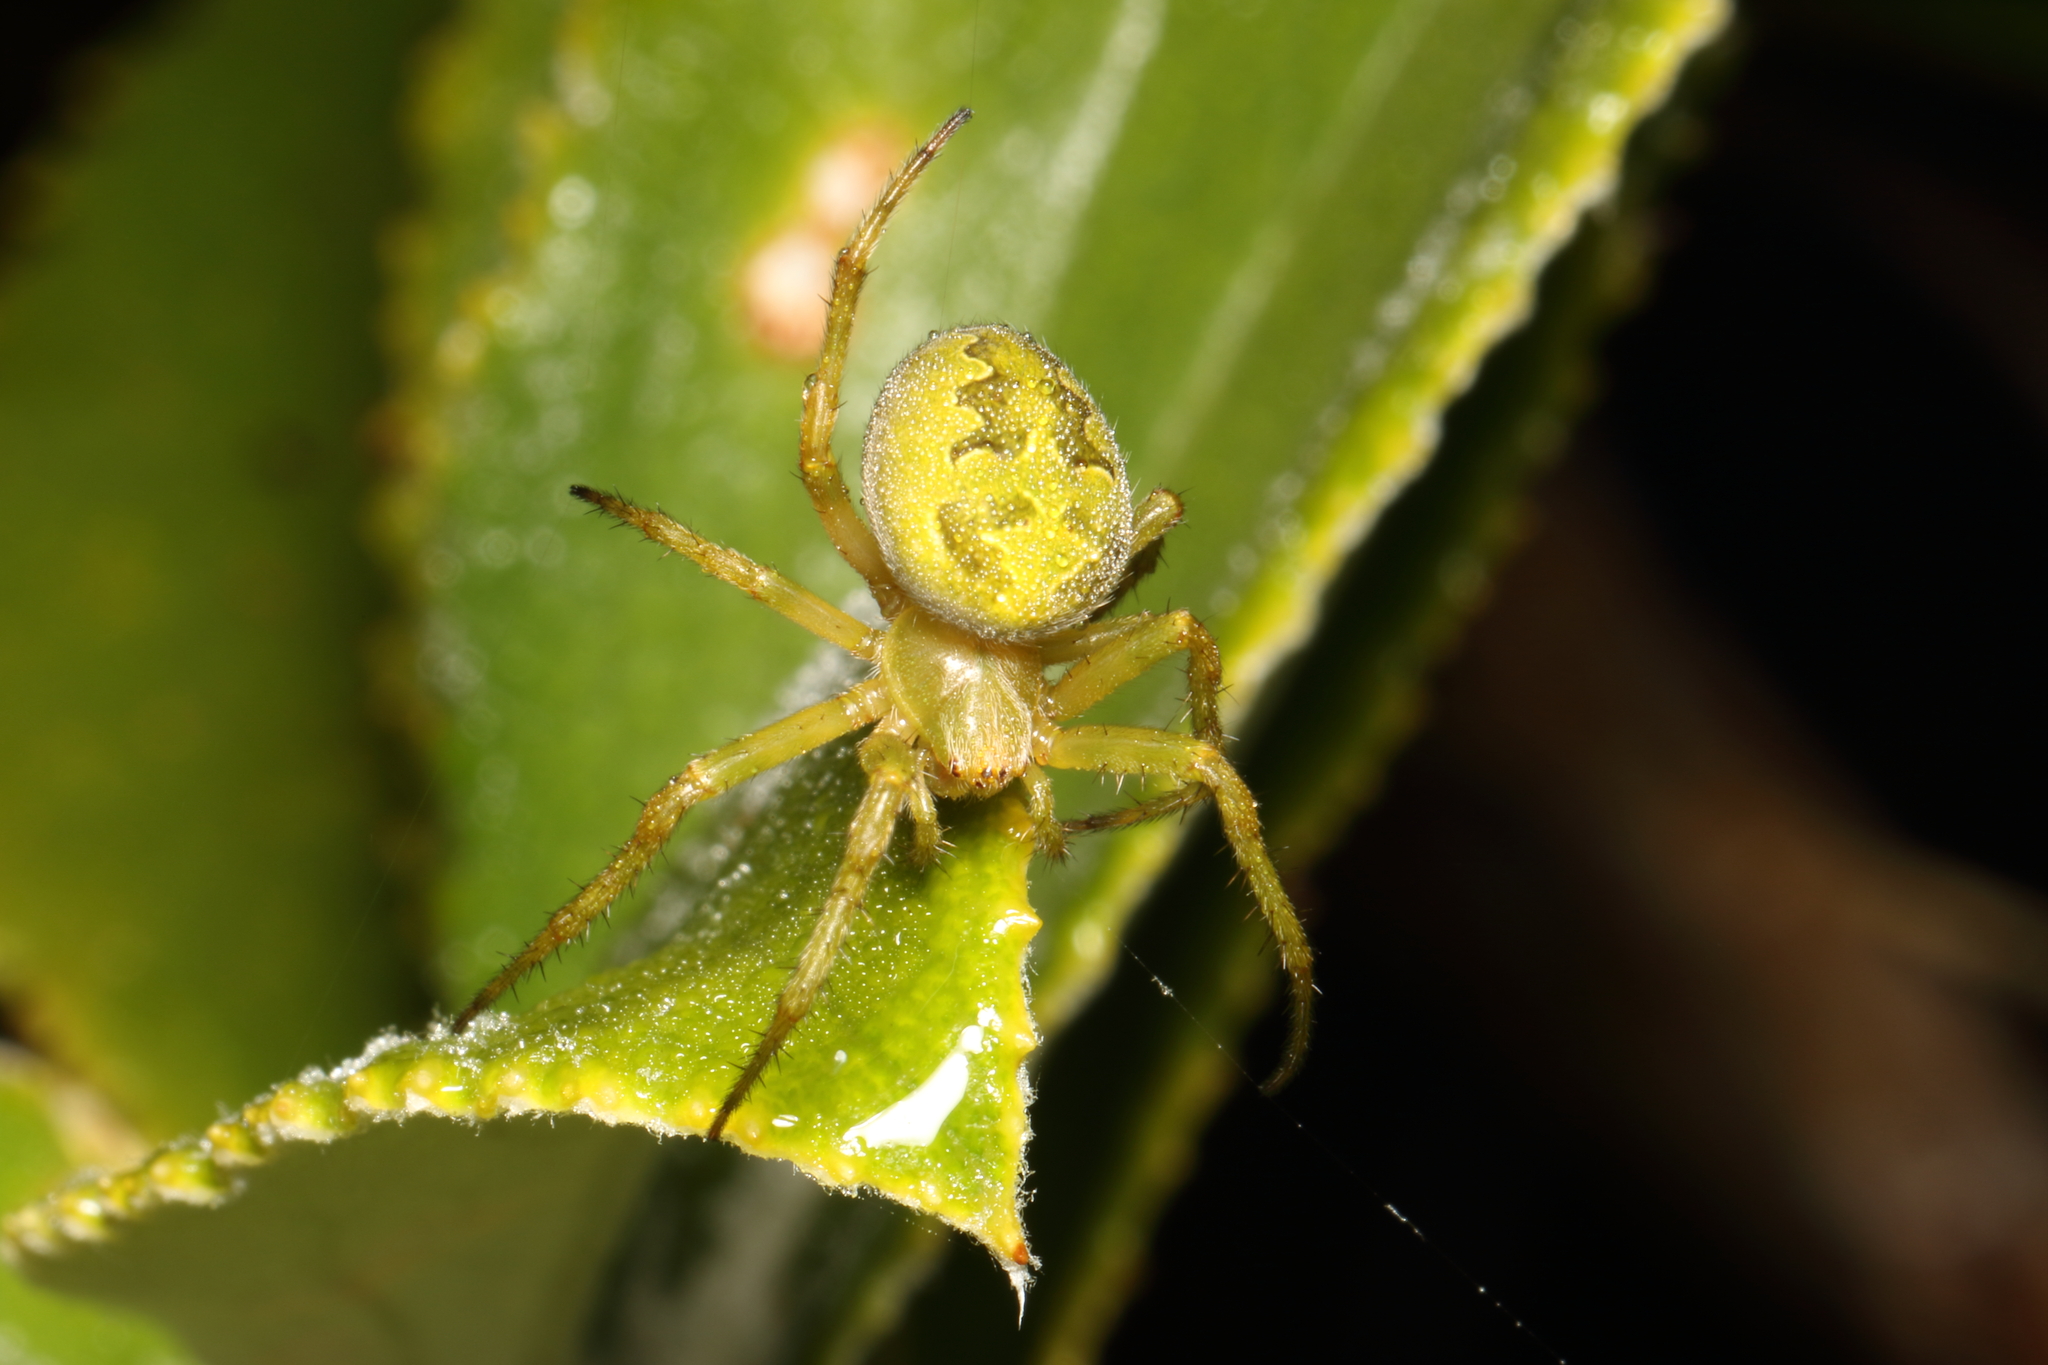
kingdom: Animalia
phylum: Arthropoda
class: Arachnida
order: Araneae
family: Araneidae
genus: Colaranea
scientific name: Colaranea verutum
